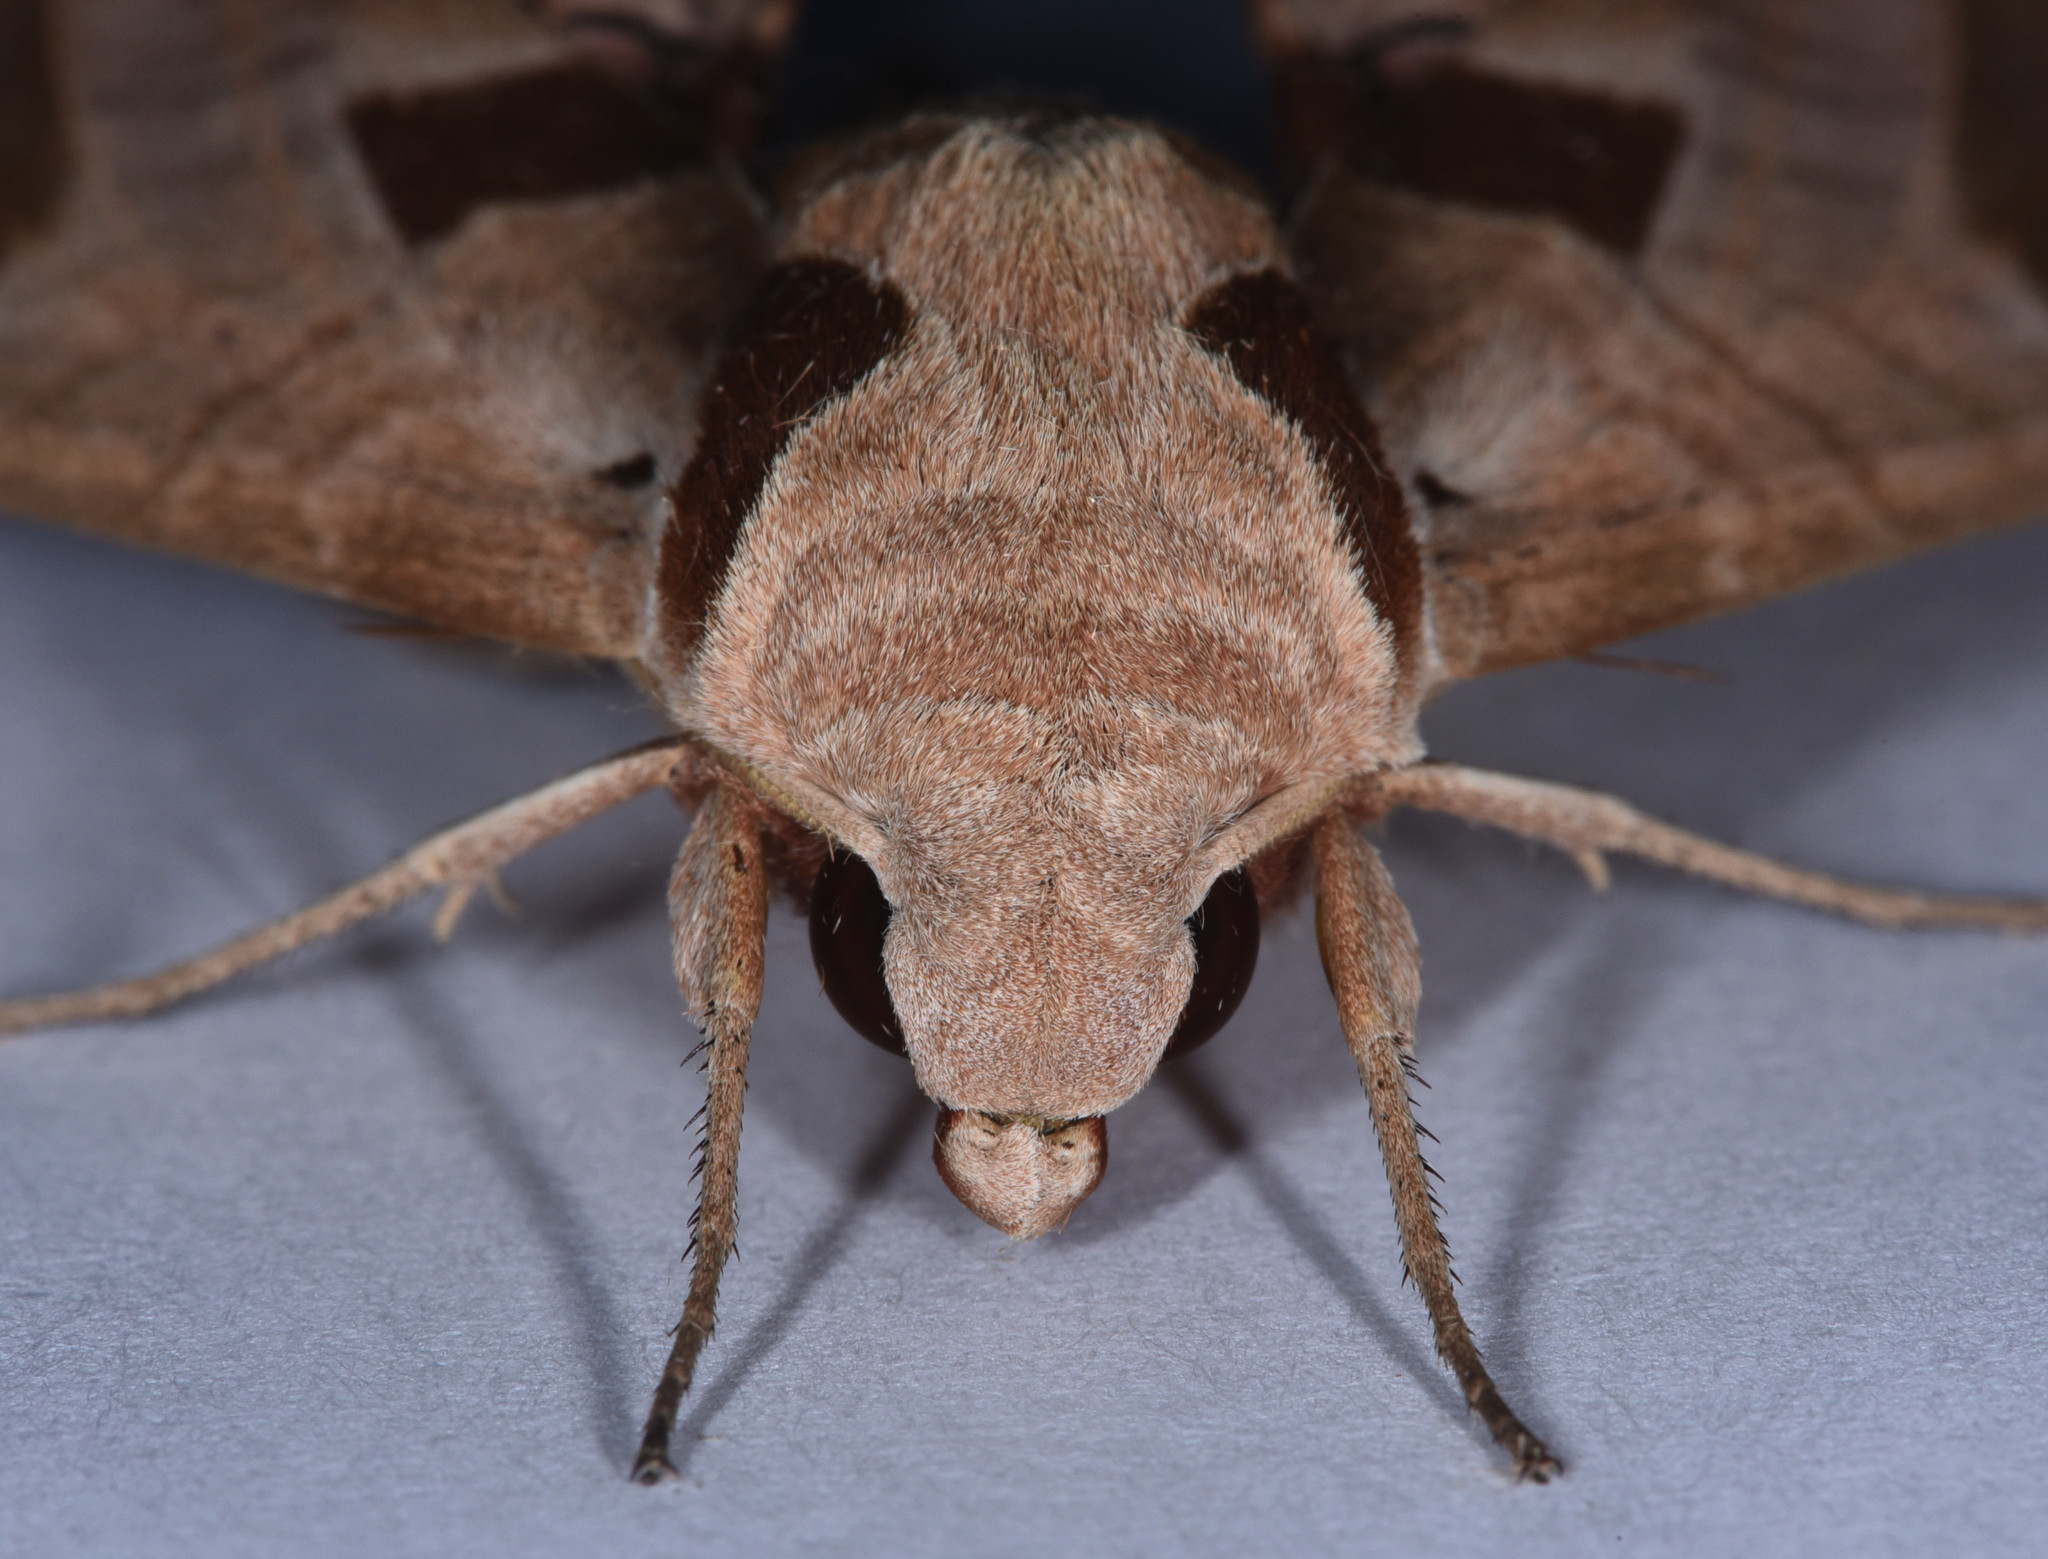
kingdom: Animalia
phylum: Arthropoda
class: Insecta
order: Lepidoptera
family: Sphingidae
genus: Eumorpha
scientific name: Eumorpha achemon
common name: Achemon sphinx
